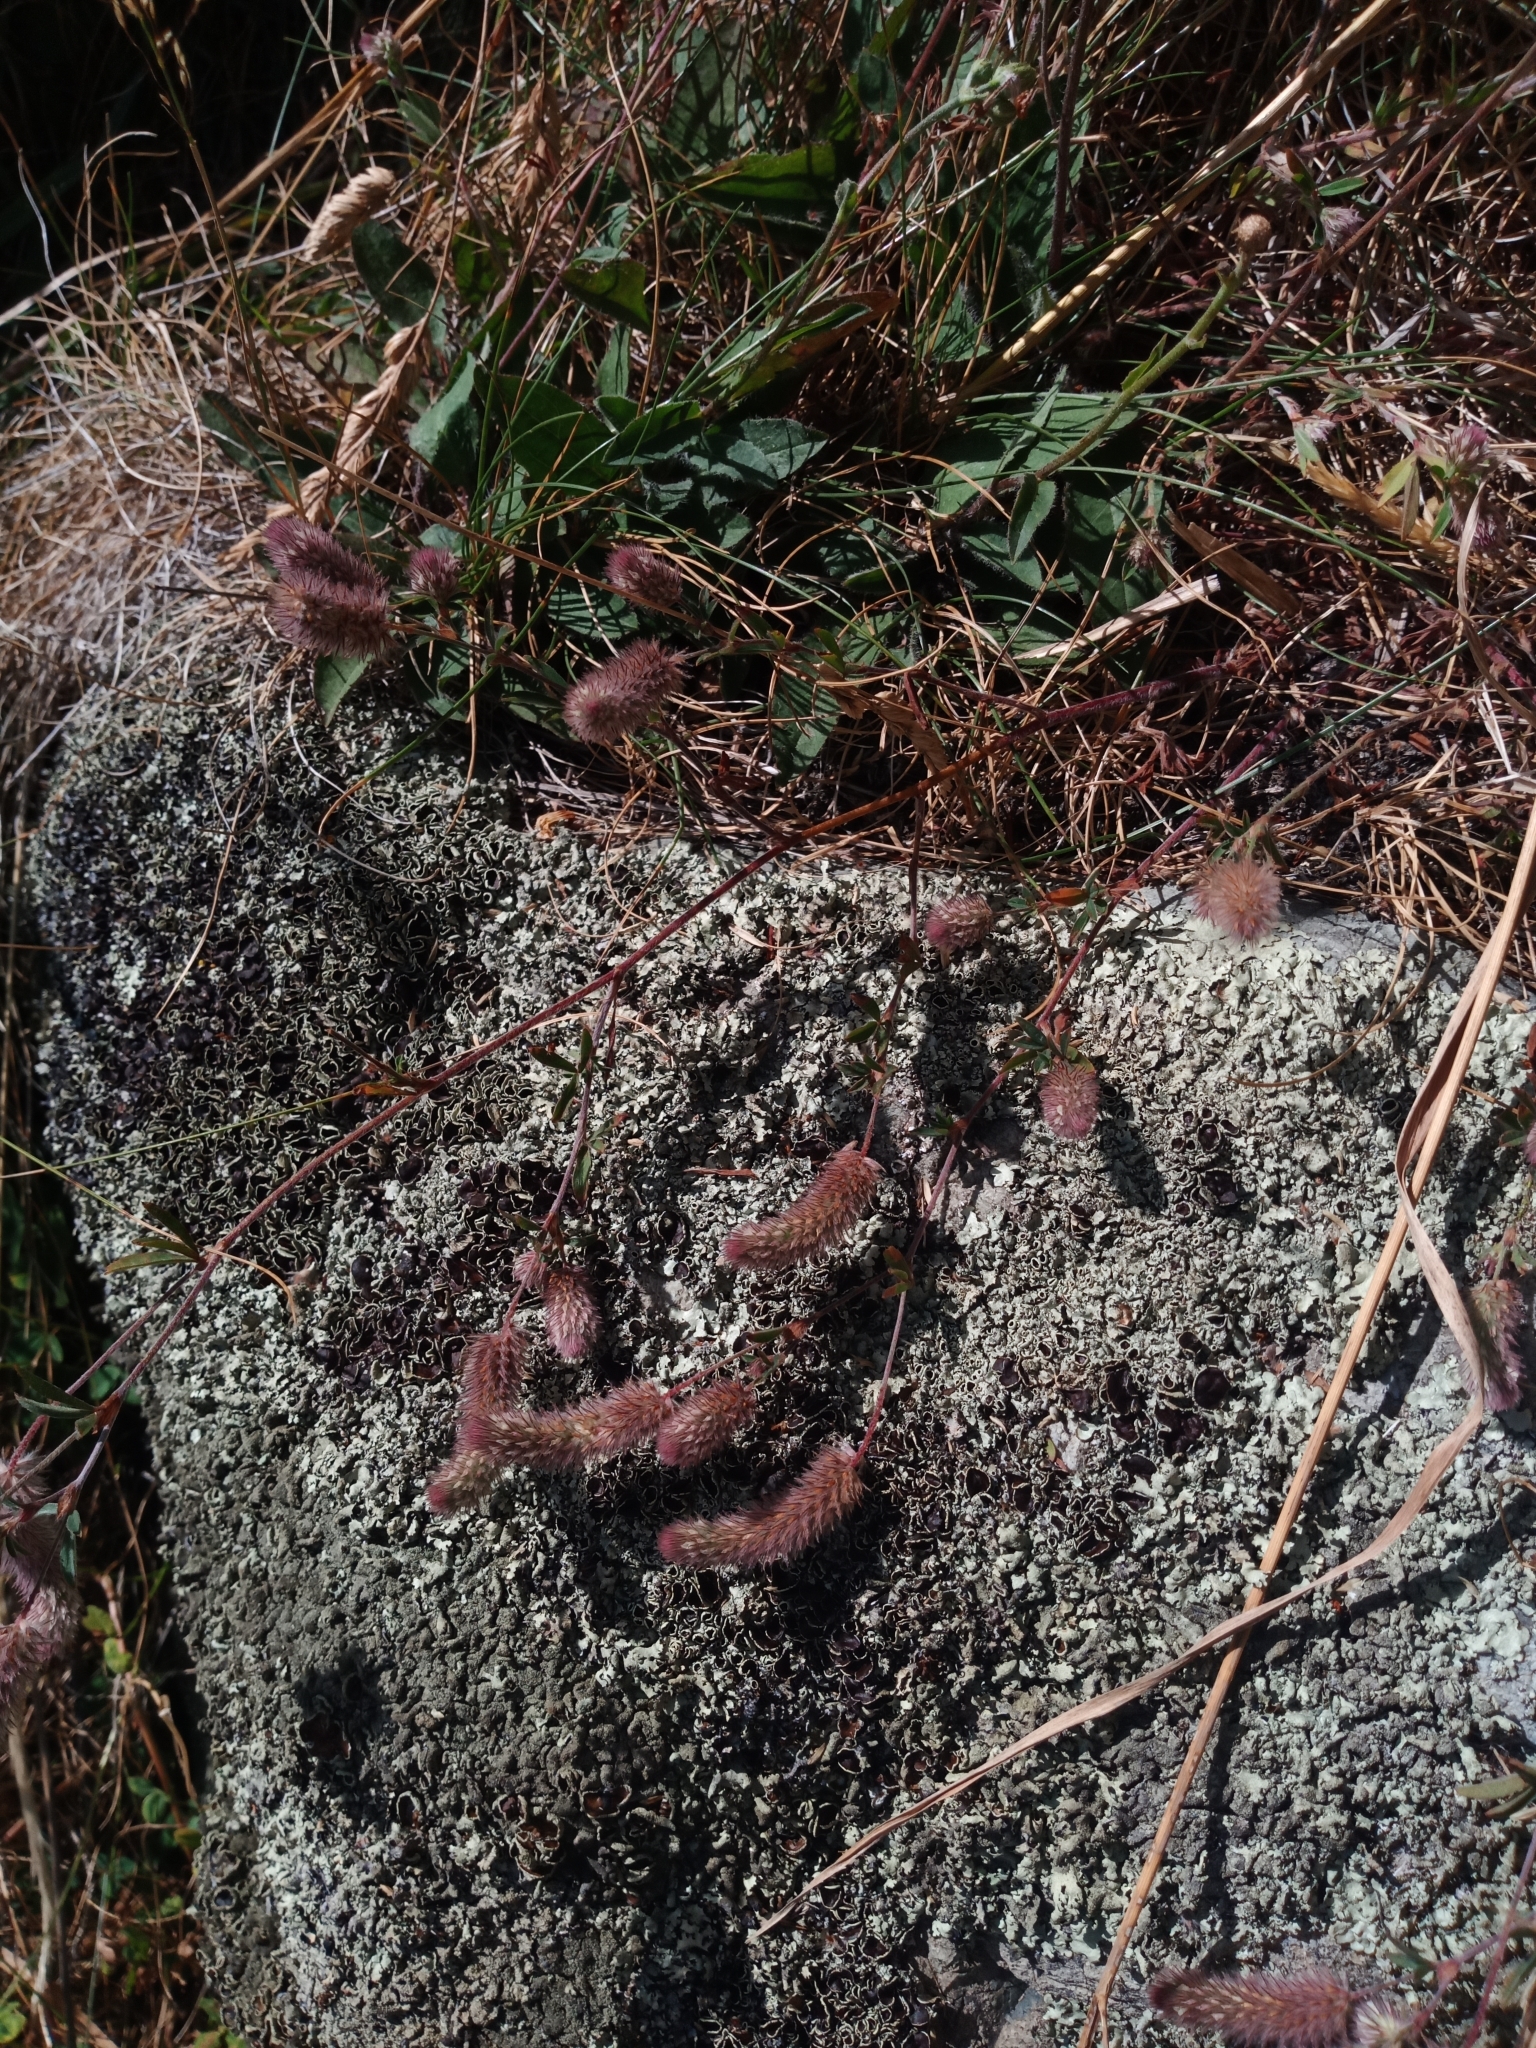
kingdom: Plantae
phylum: Tracheophyta
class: Magnoliopsida
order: Fabales
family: Fabaceae
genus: Trifolium
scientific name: Trifolium arvense
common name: Hare's-foot clover
